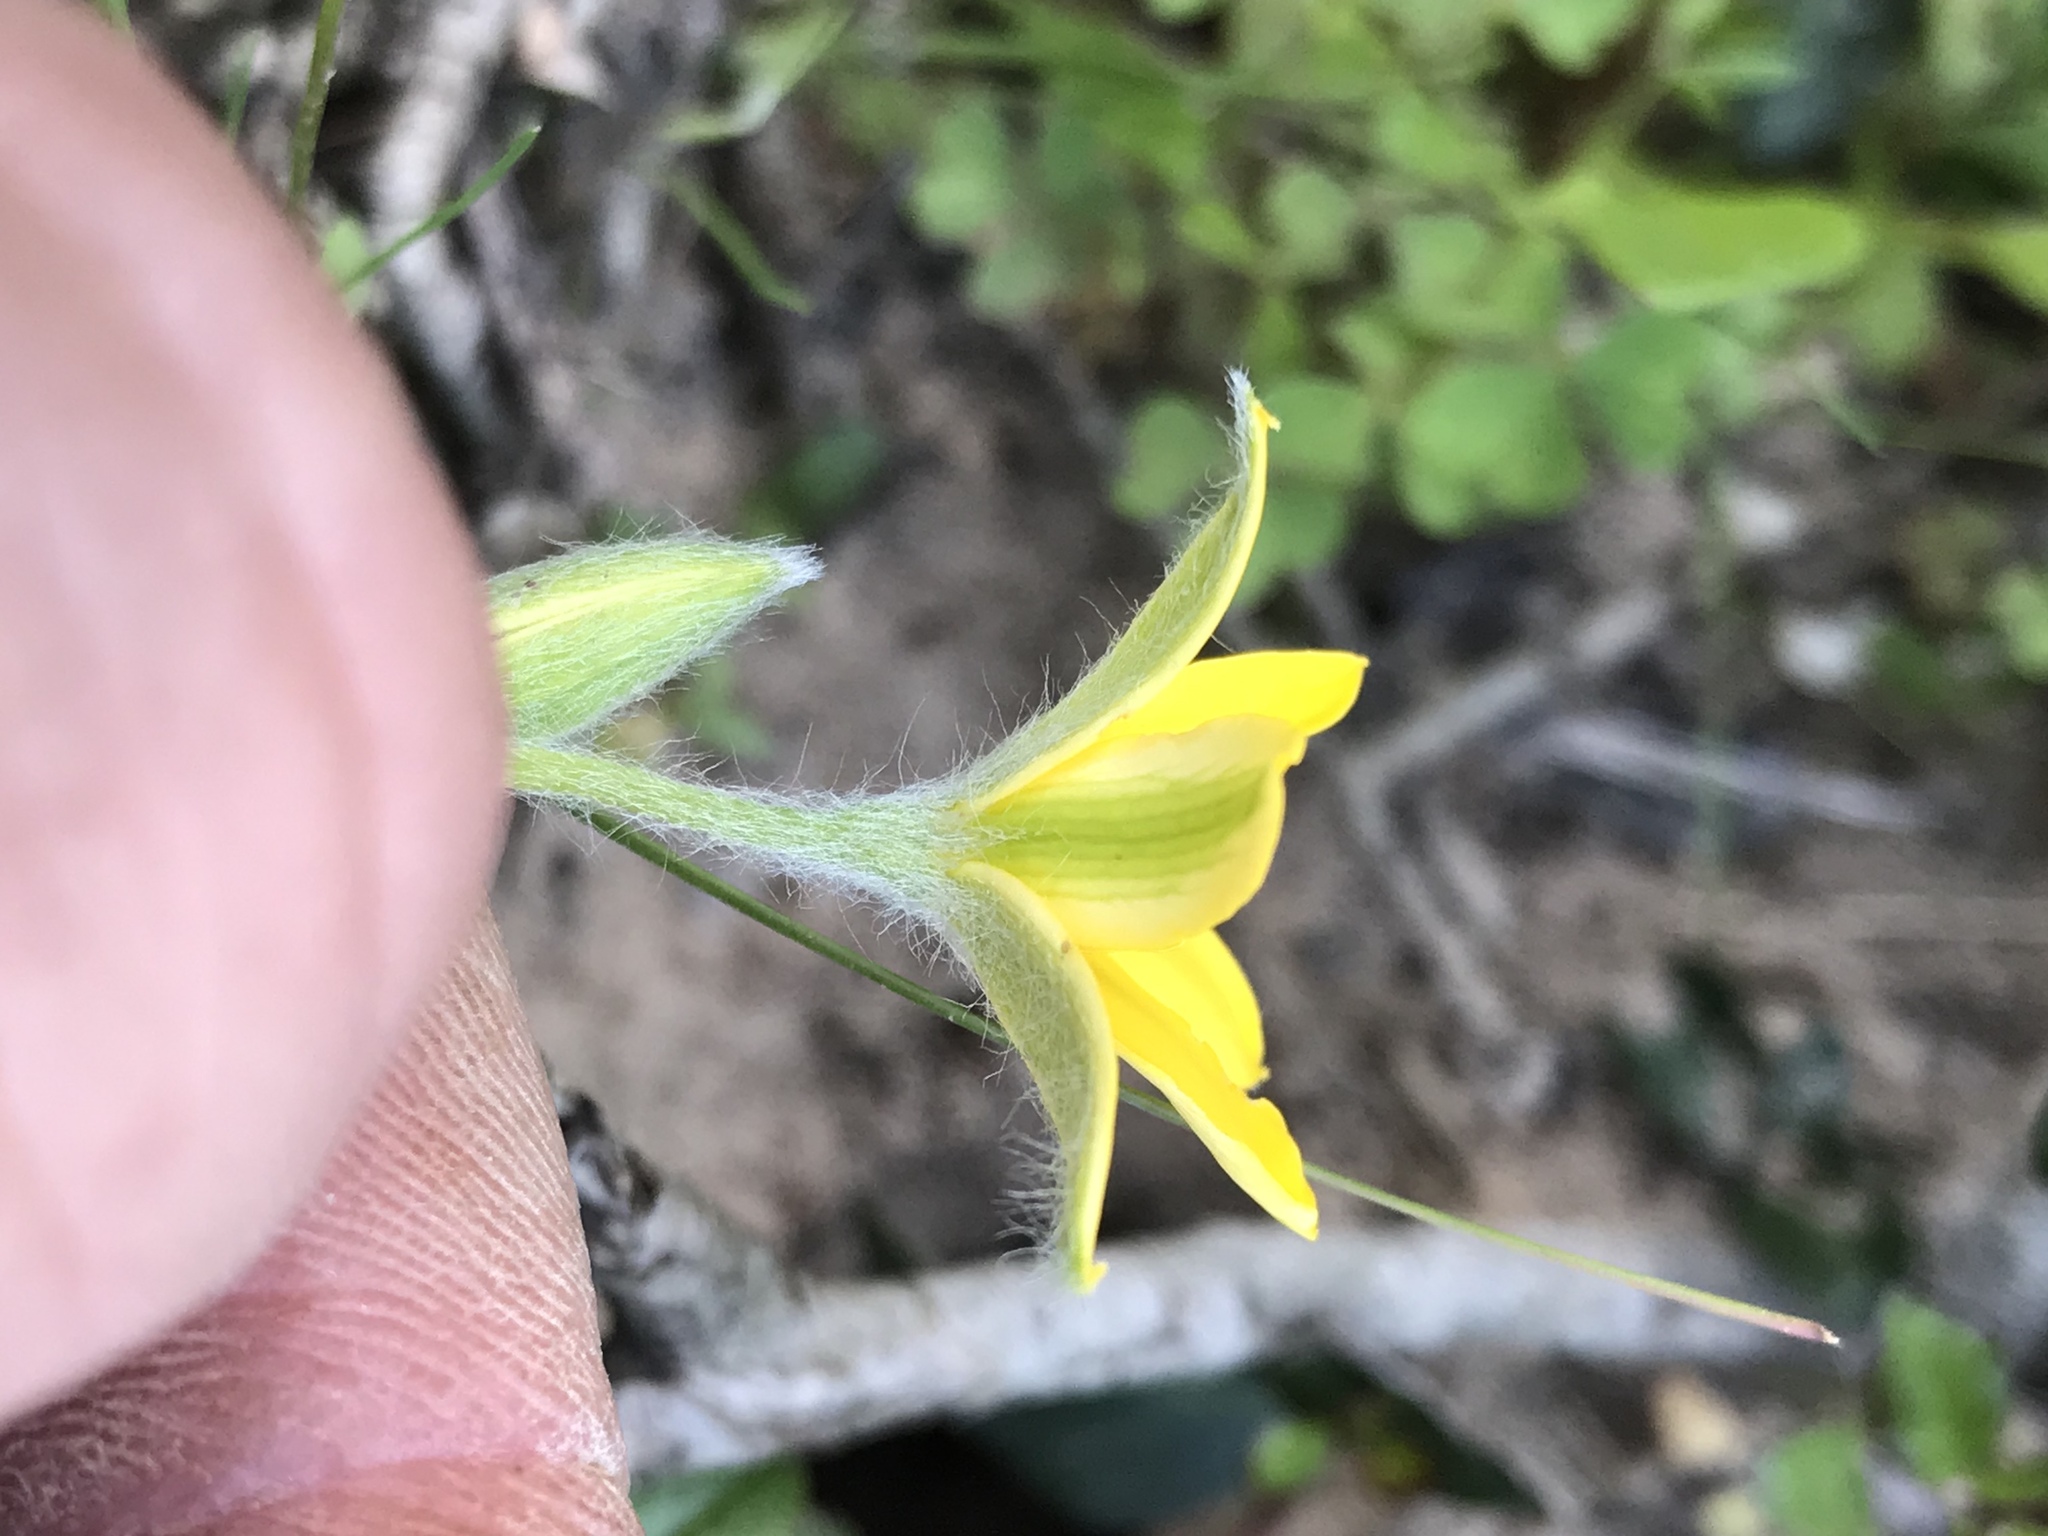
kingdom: Plantae
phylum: Tracheophyta
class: Liliopsida
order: Asparagales
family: Hypoxidaceae
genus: Hypoxis
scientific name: Hypoxis hirsuta
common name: Common goldstar
